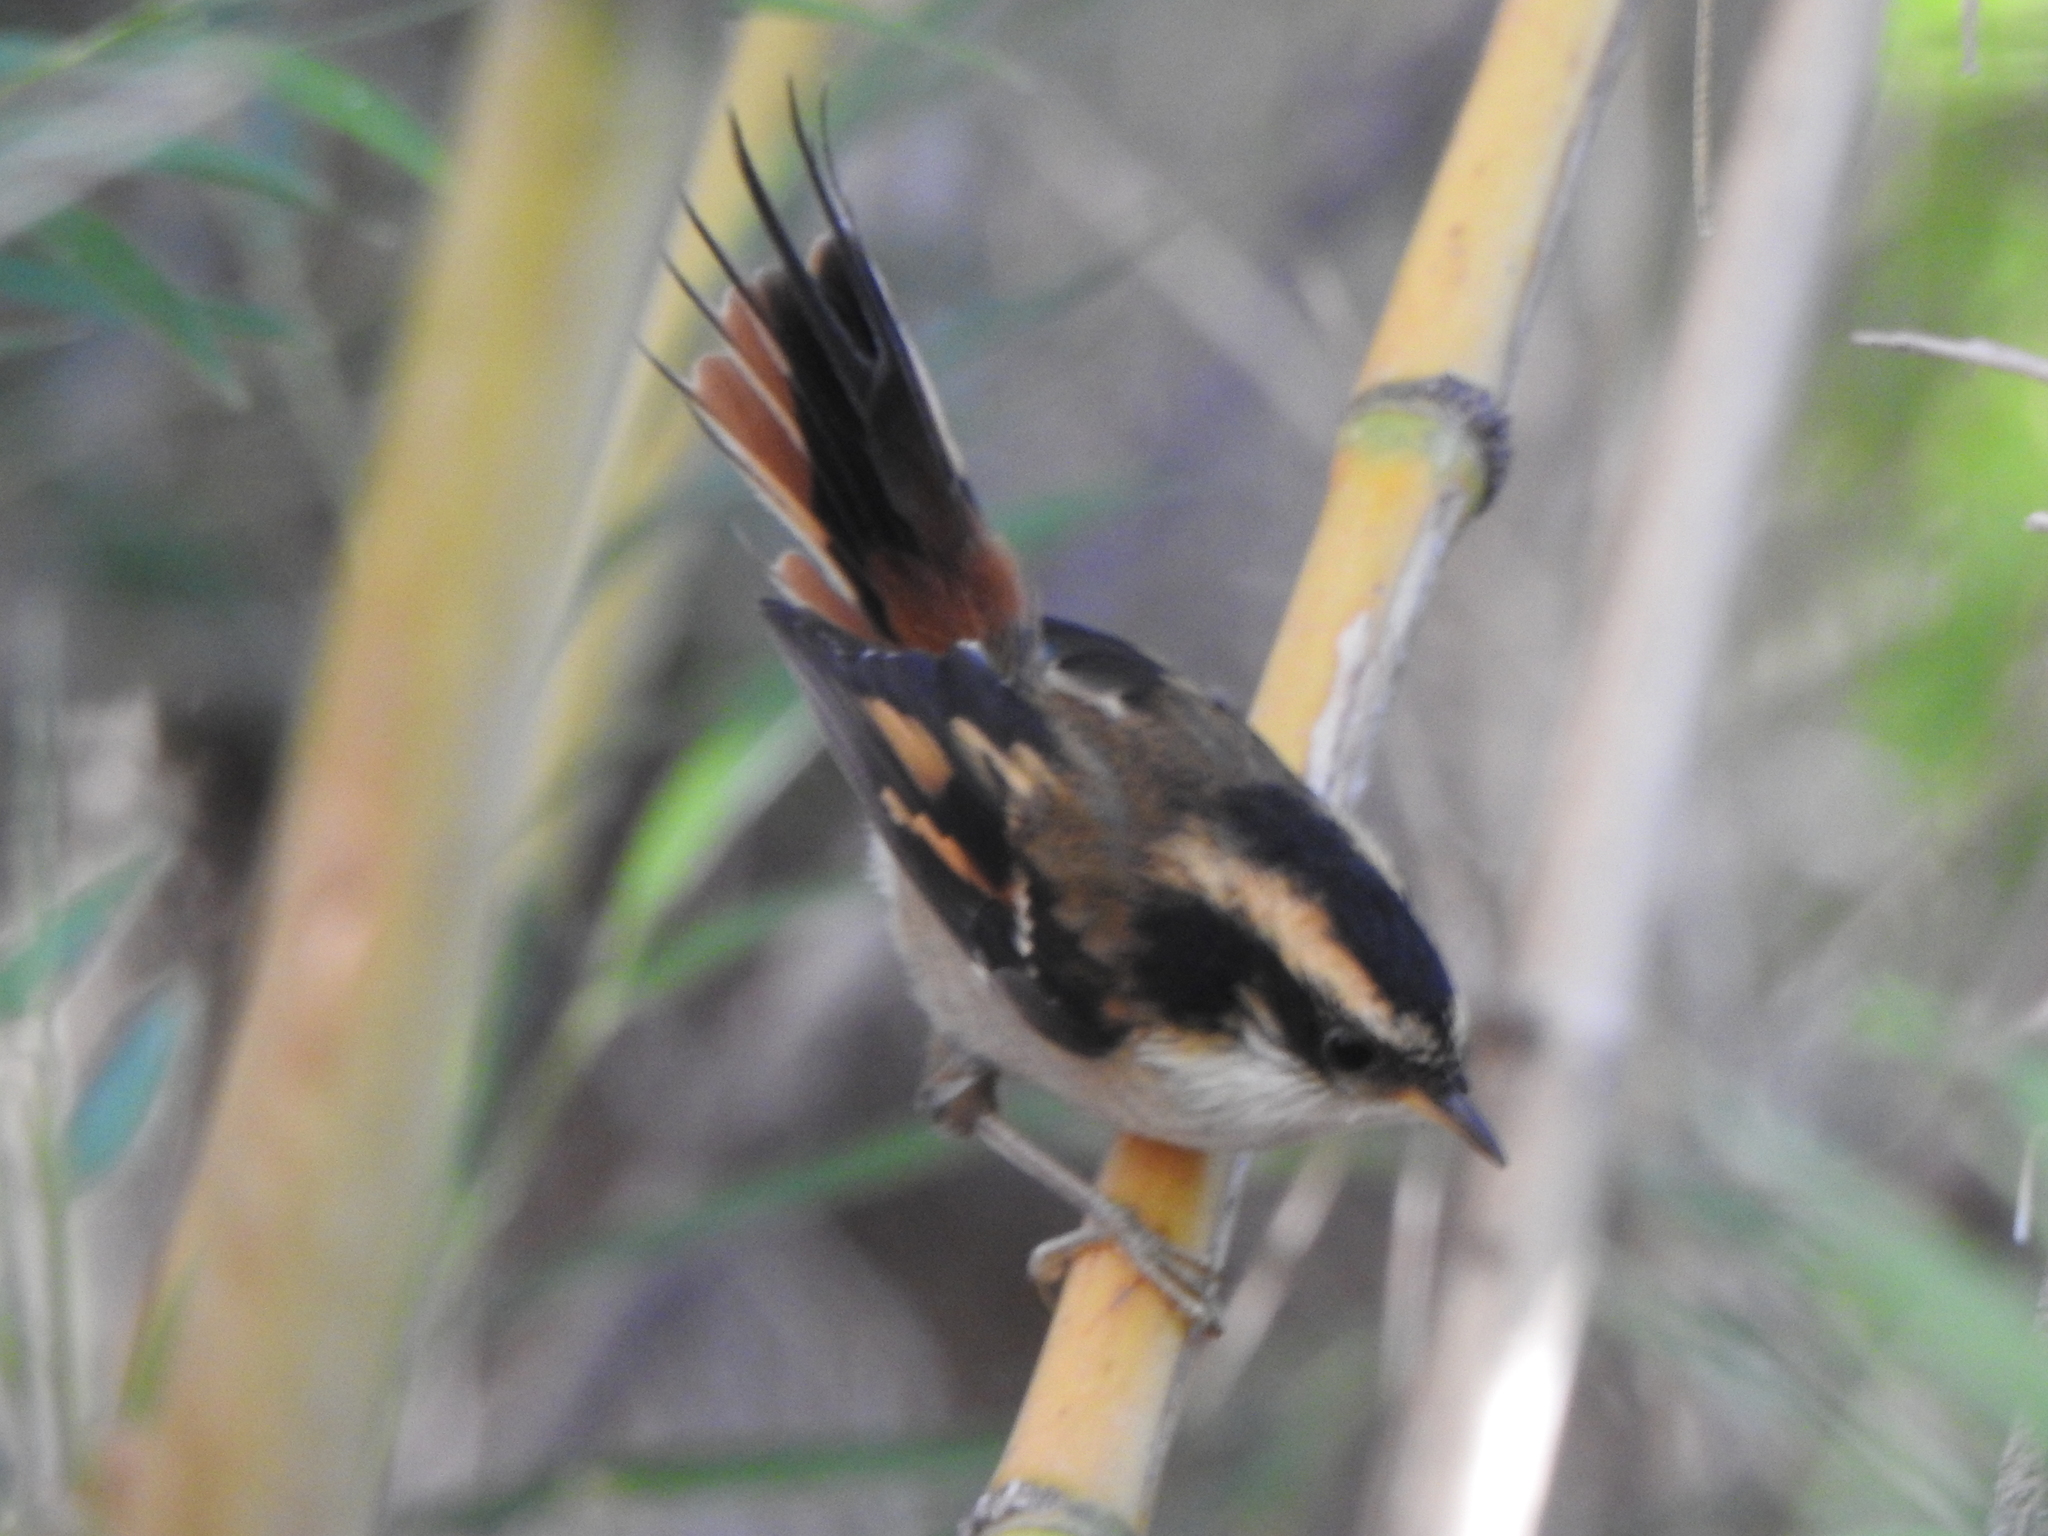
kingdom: Animalia
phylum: Chordata
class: Aves
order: Passeriformes
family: Furnariidae
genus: Aphrastura
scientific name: Aphrastura spinicauda
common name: Thorn-tailed rayadito
